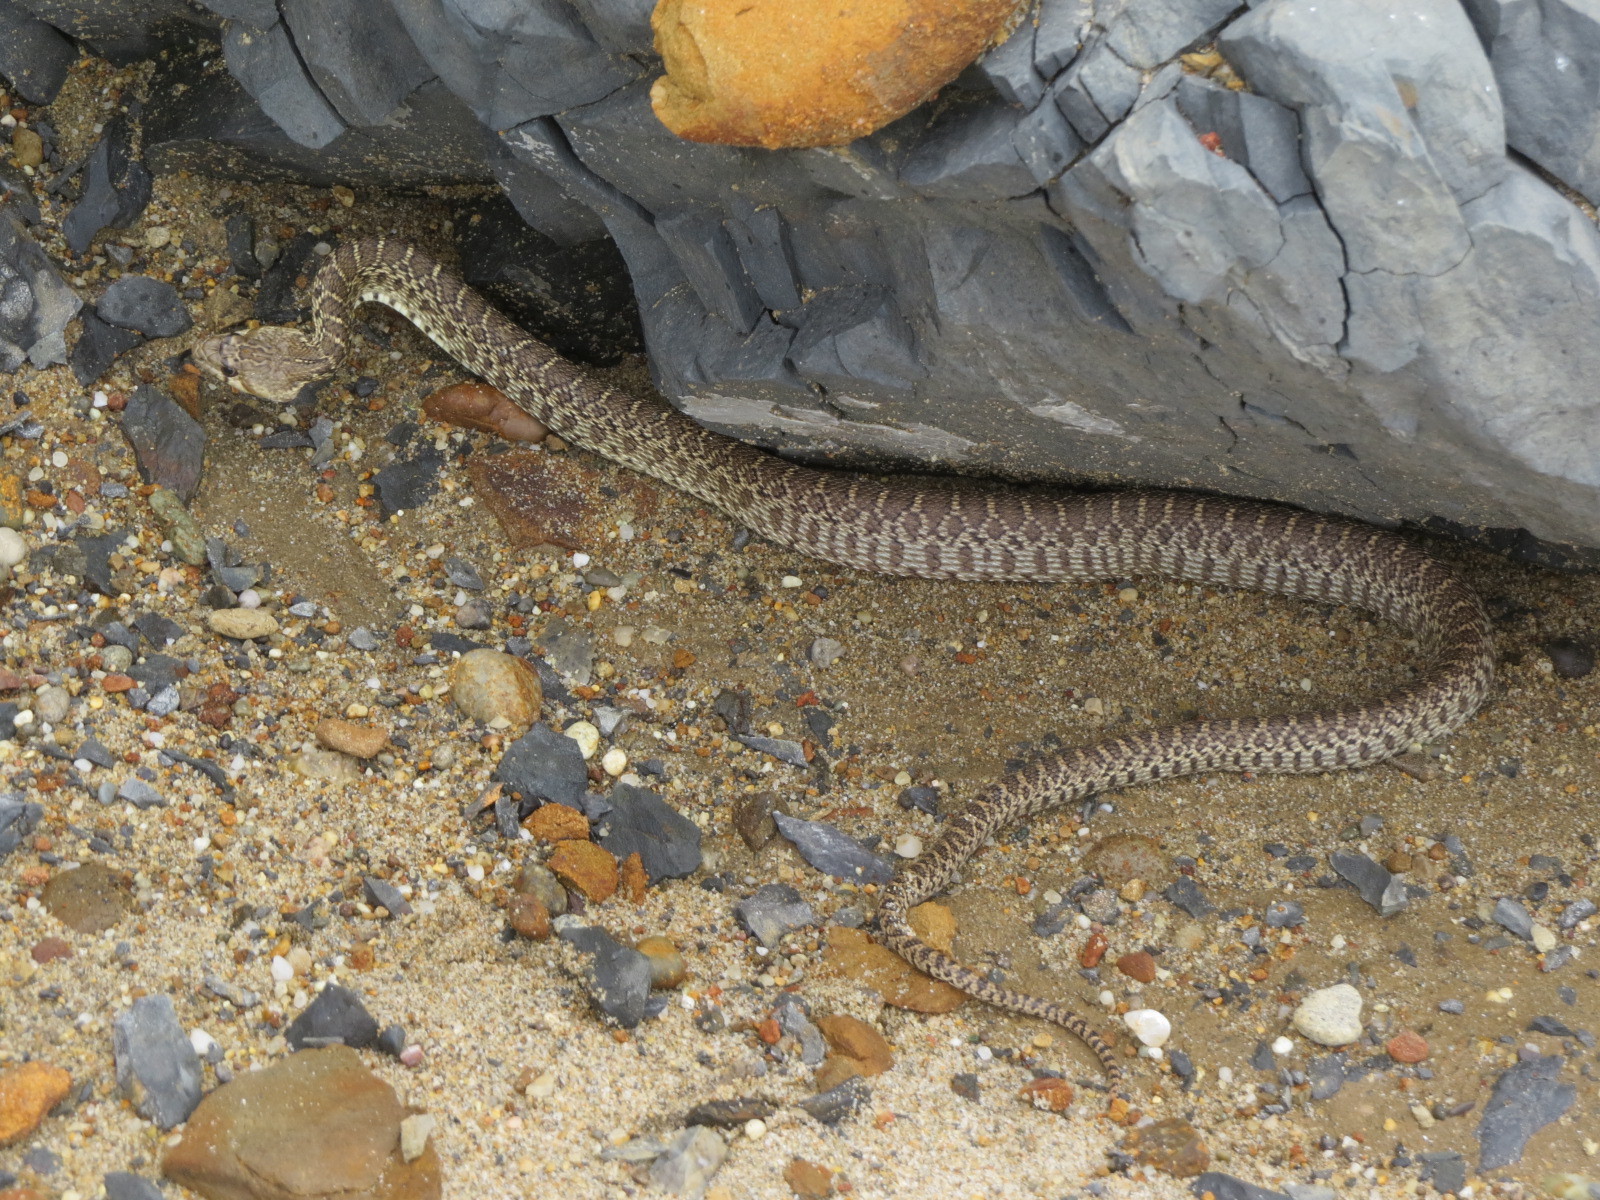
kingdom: Animalia
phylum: Chordata
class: Squamata
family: Colubridae
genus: Pituophis
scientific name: Pituophis catenifer
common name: Gopher snake
